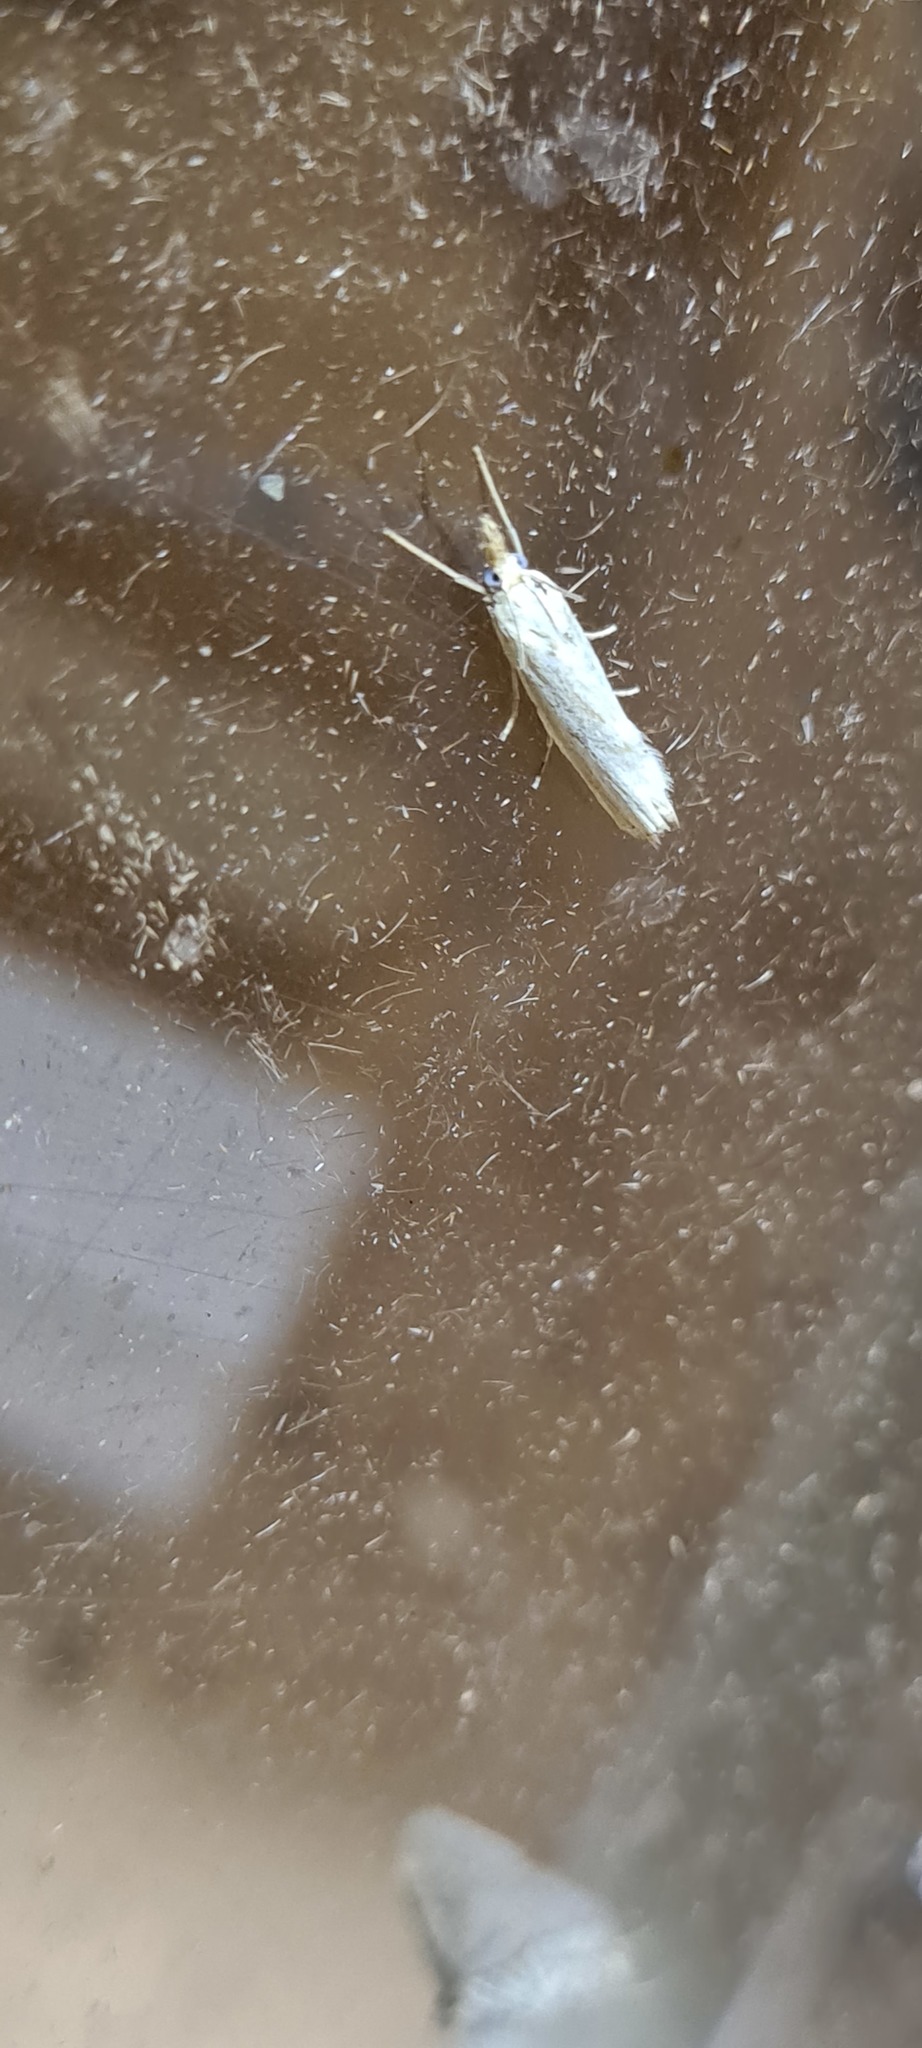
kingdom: Animalia
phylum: Arthropoda
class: Insecta
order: Lepidoptera
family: Crambidae
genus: Agriphila
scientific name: Agriphila straminella
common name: Straw grass-veneer
